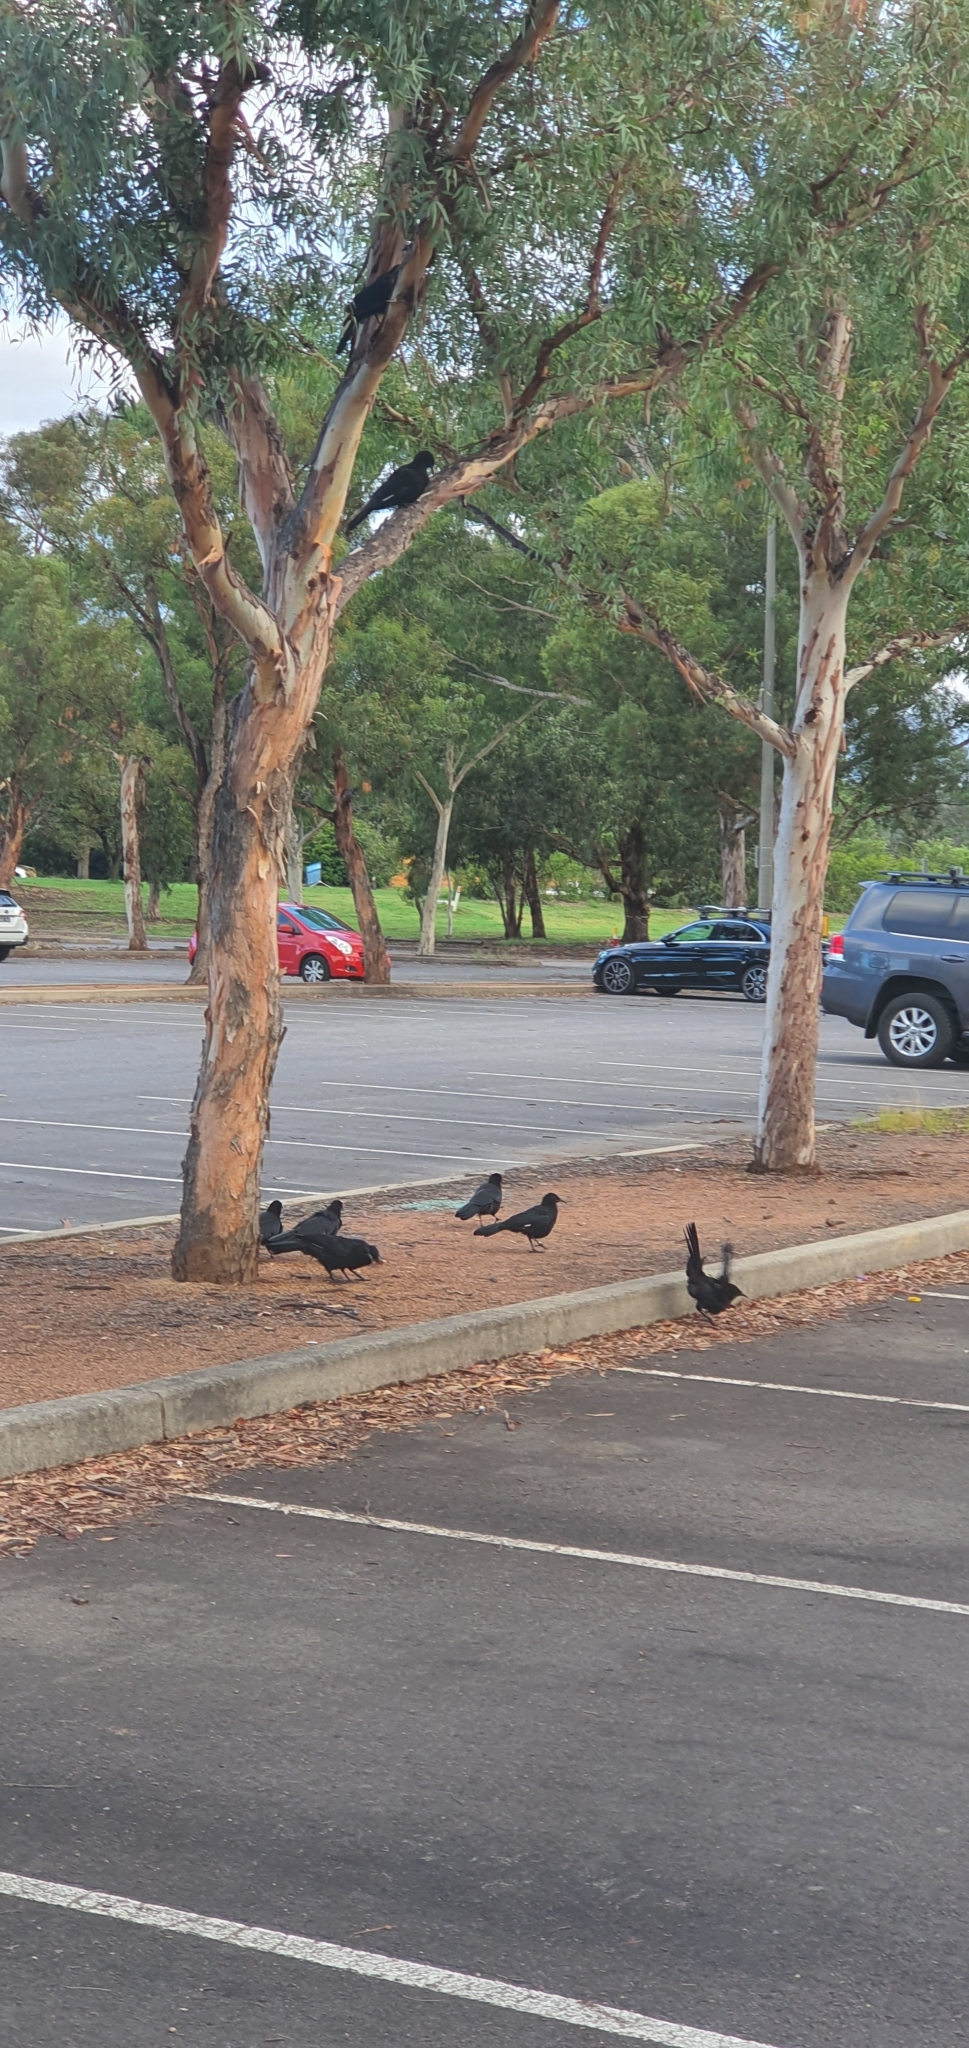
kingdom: Animalia
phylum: Chordata
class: Aves
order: Passeriformes
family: Corcoracidae
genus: Corcorax
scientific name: Corcorax melanoramphos
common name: White-winged chough
